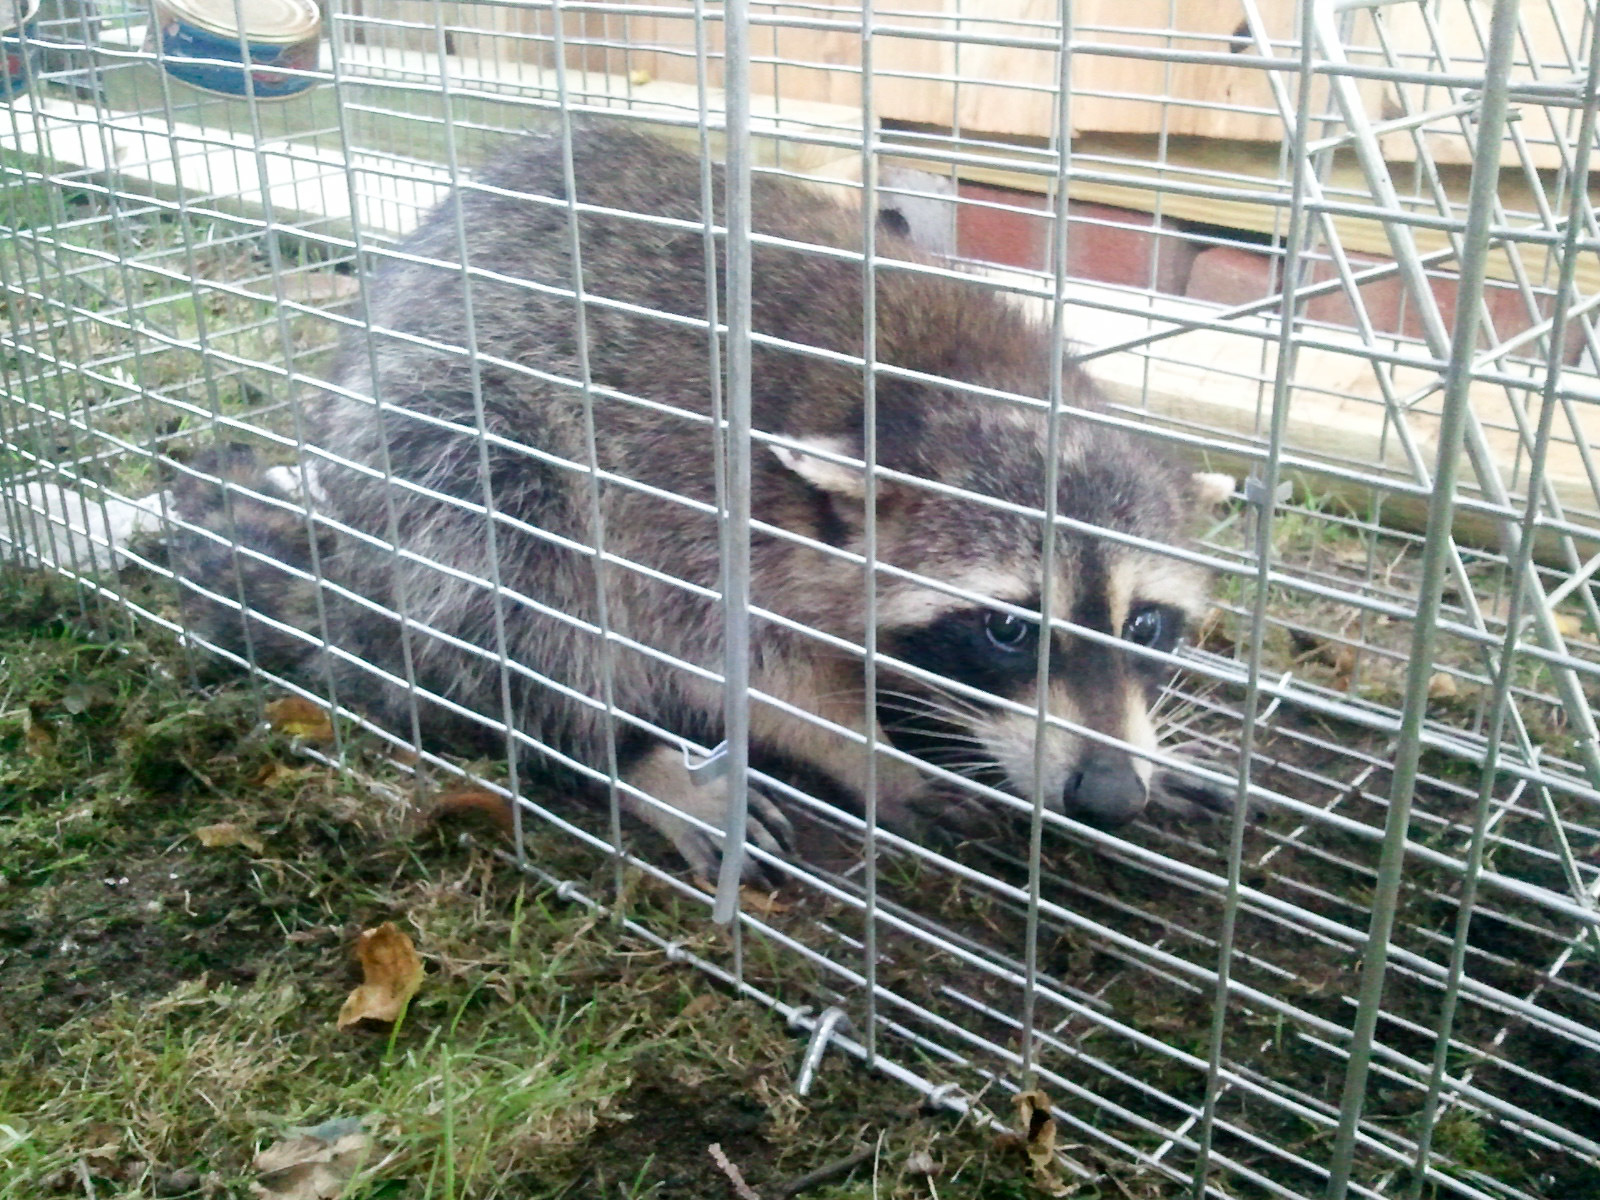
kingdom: Animalia
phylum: Chordata
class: Mammalia
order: Carnivora
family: Procyonidae
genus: Procyon
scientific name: Procyon lotor
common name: Raccoon
